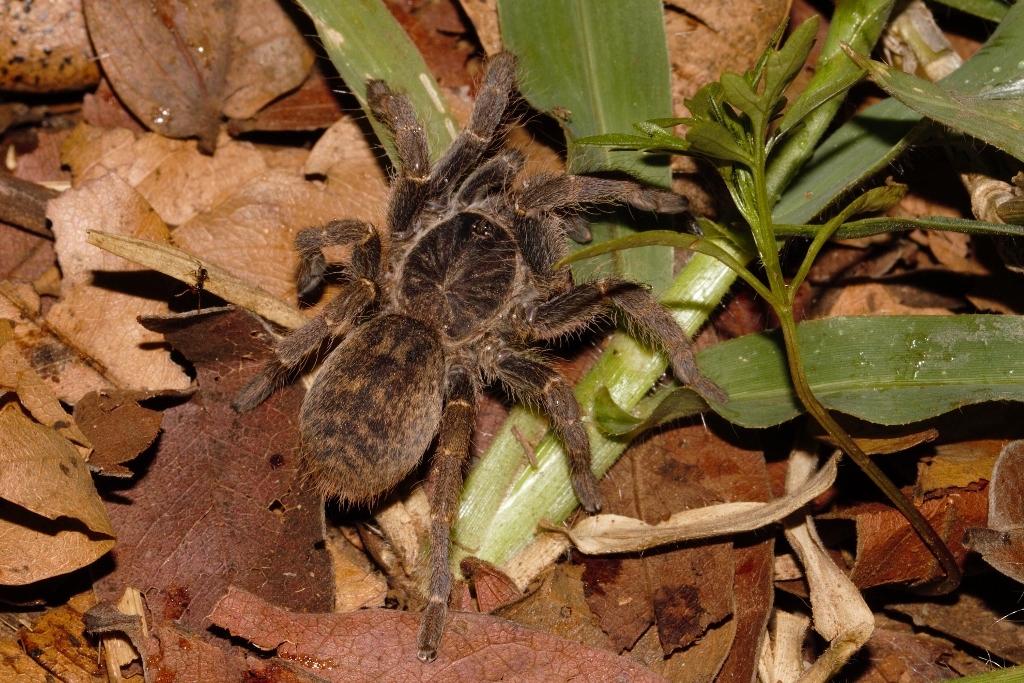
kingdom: Animalia
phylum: Arthropoda
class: Arachnida
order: Araneae
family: Theraphosidae
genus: Idiothele
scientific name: Idiothele nigrofulva
